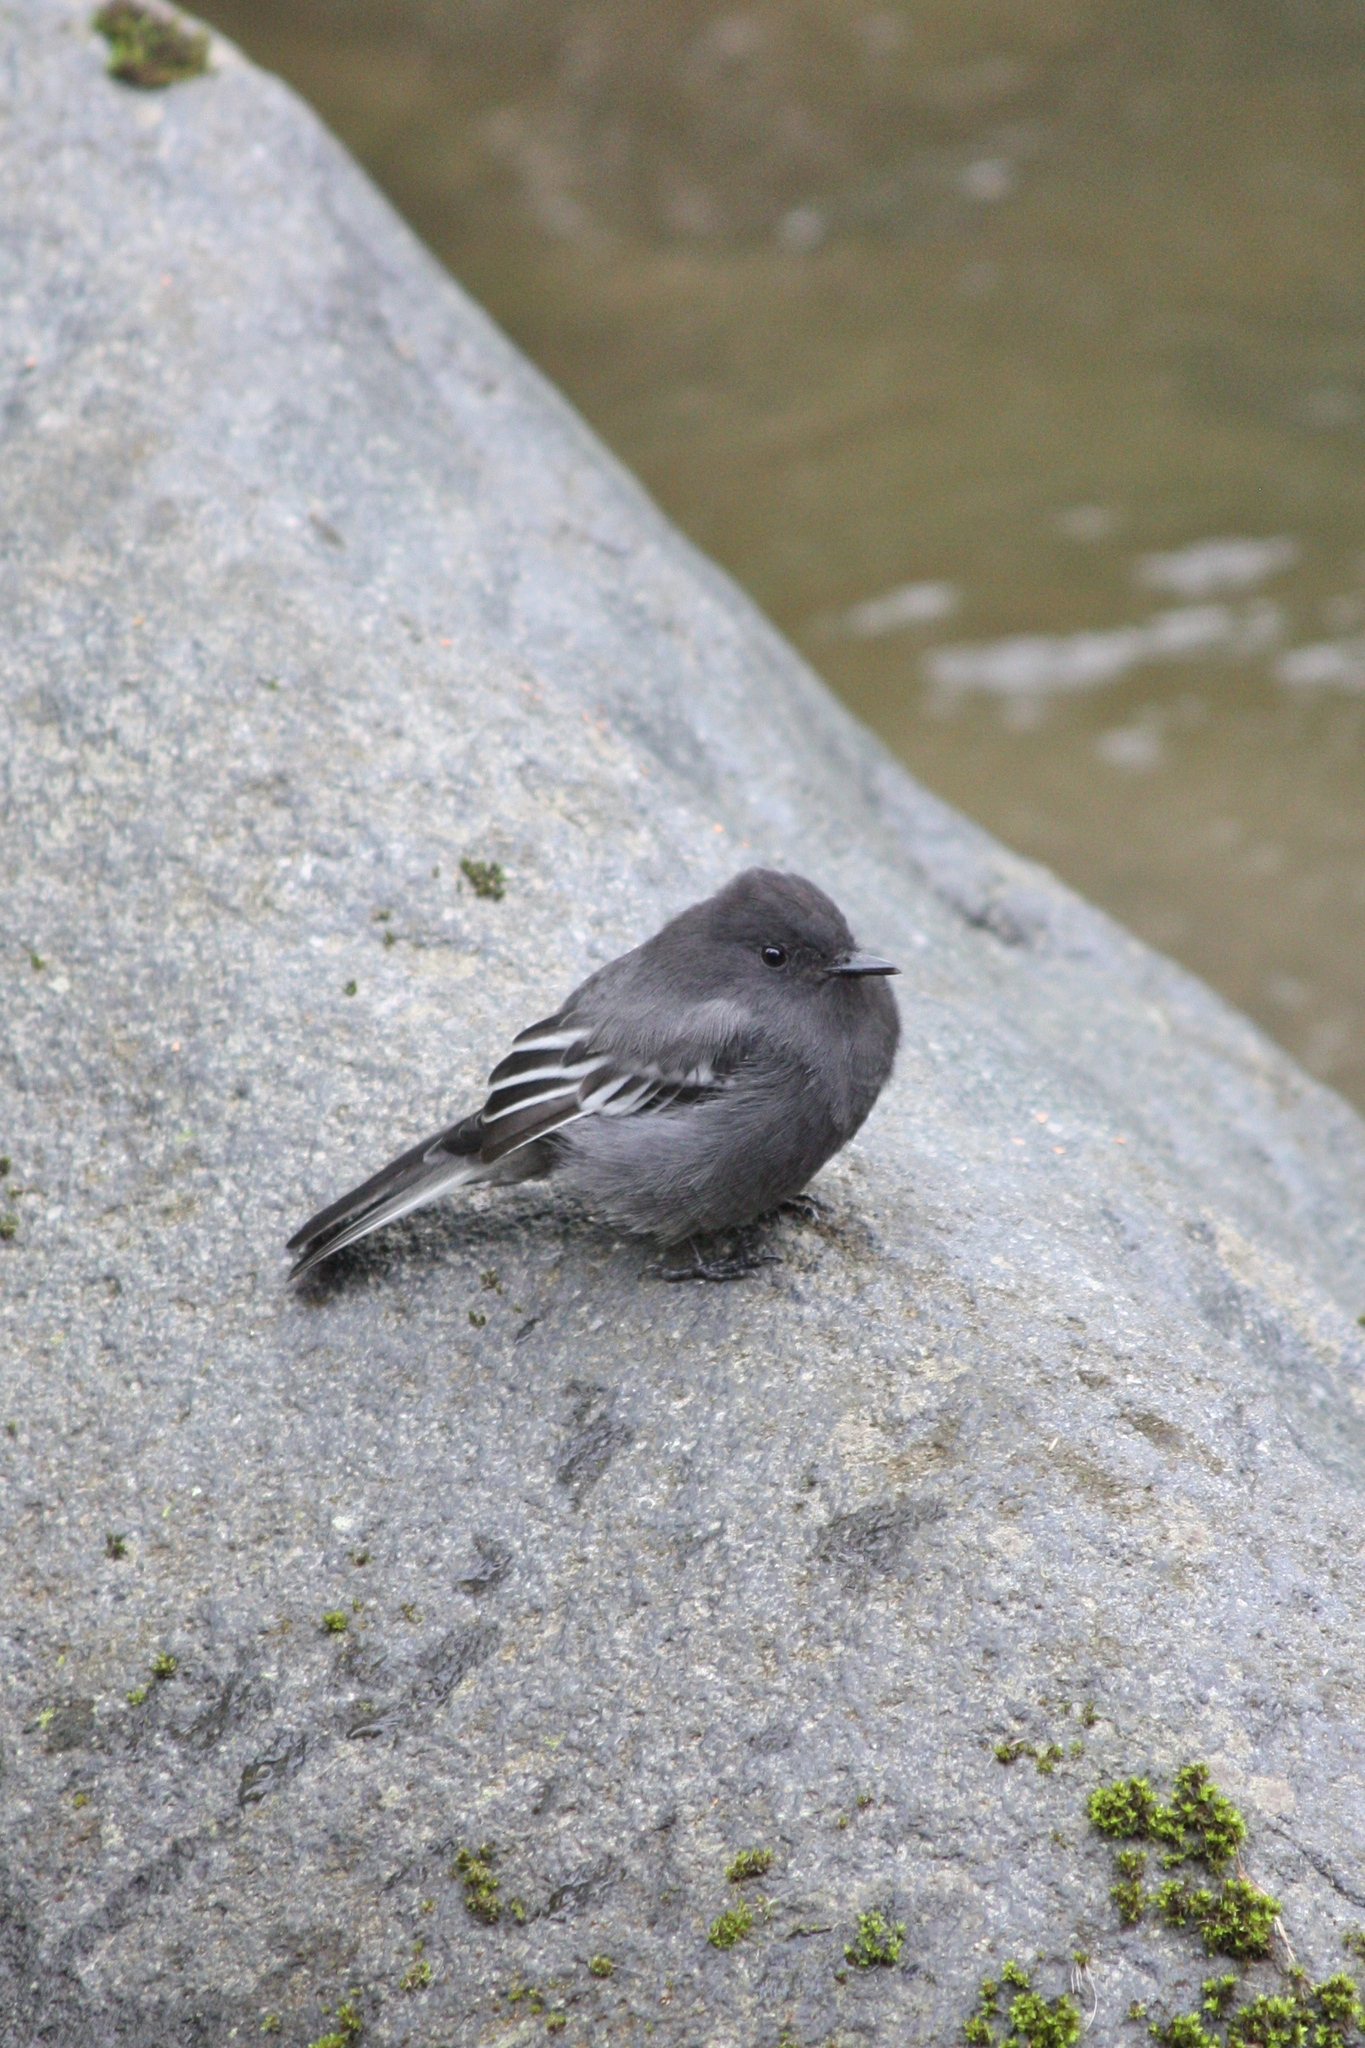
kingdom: Animalia
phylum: Chordata
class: Aves
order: Passeriformes
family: Tyrannidae
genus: Sayornis
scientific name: Sayornis nigricans
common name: Black phoebe
